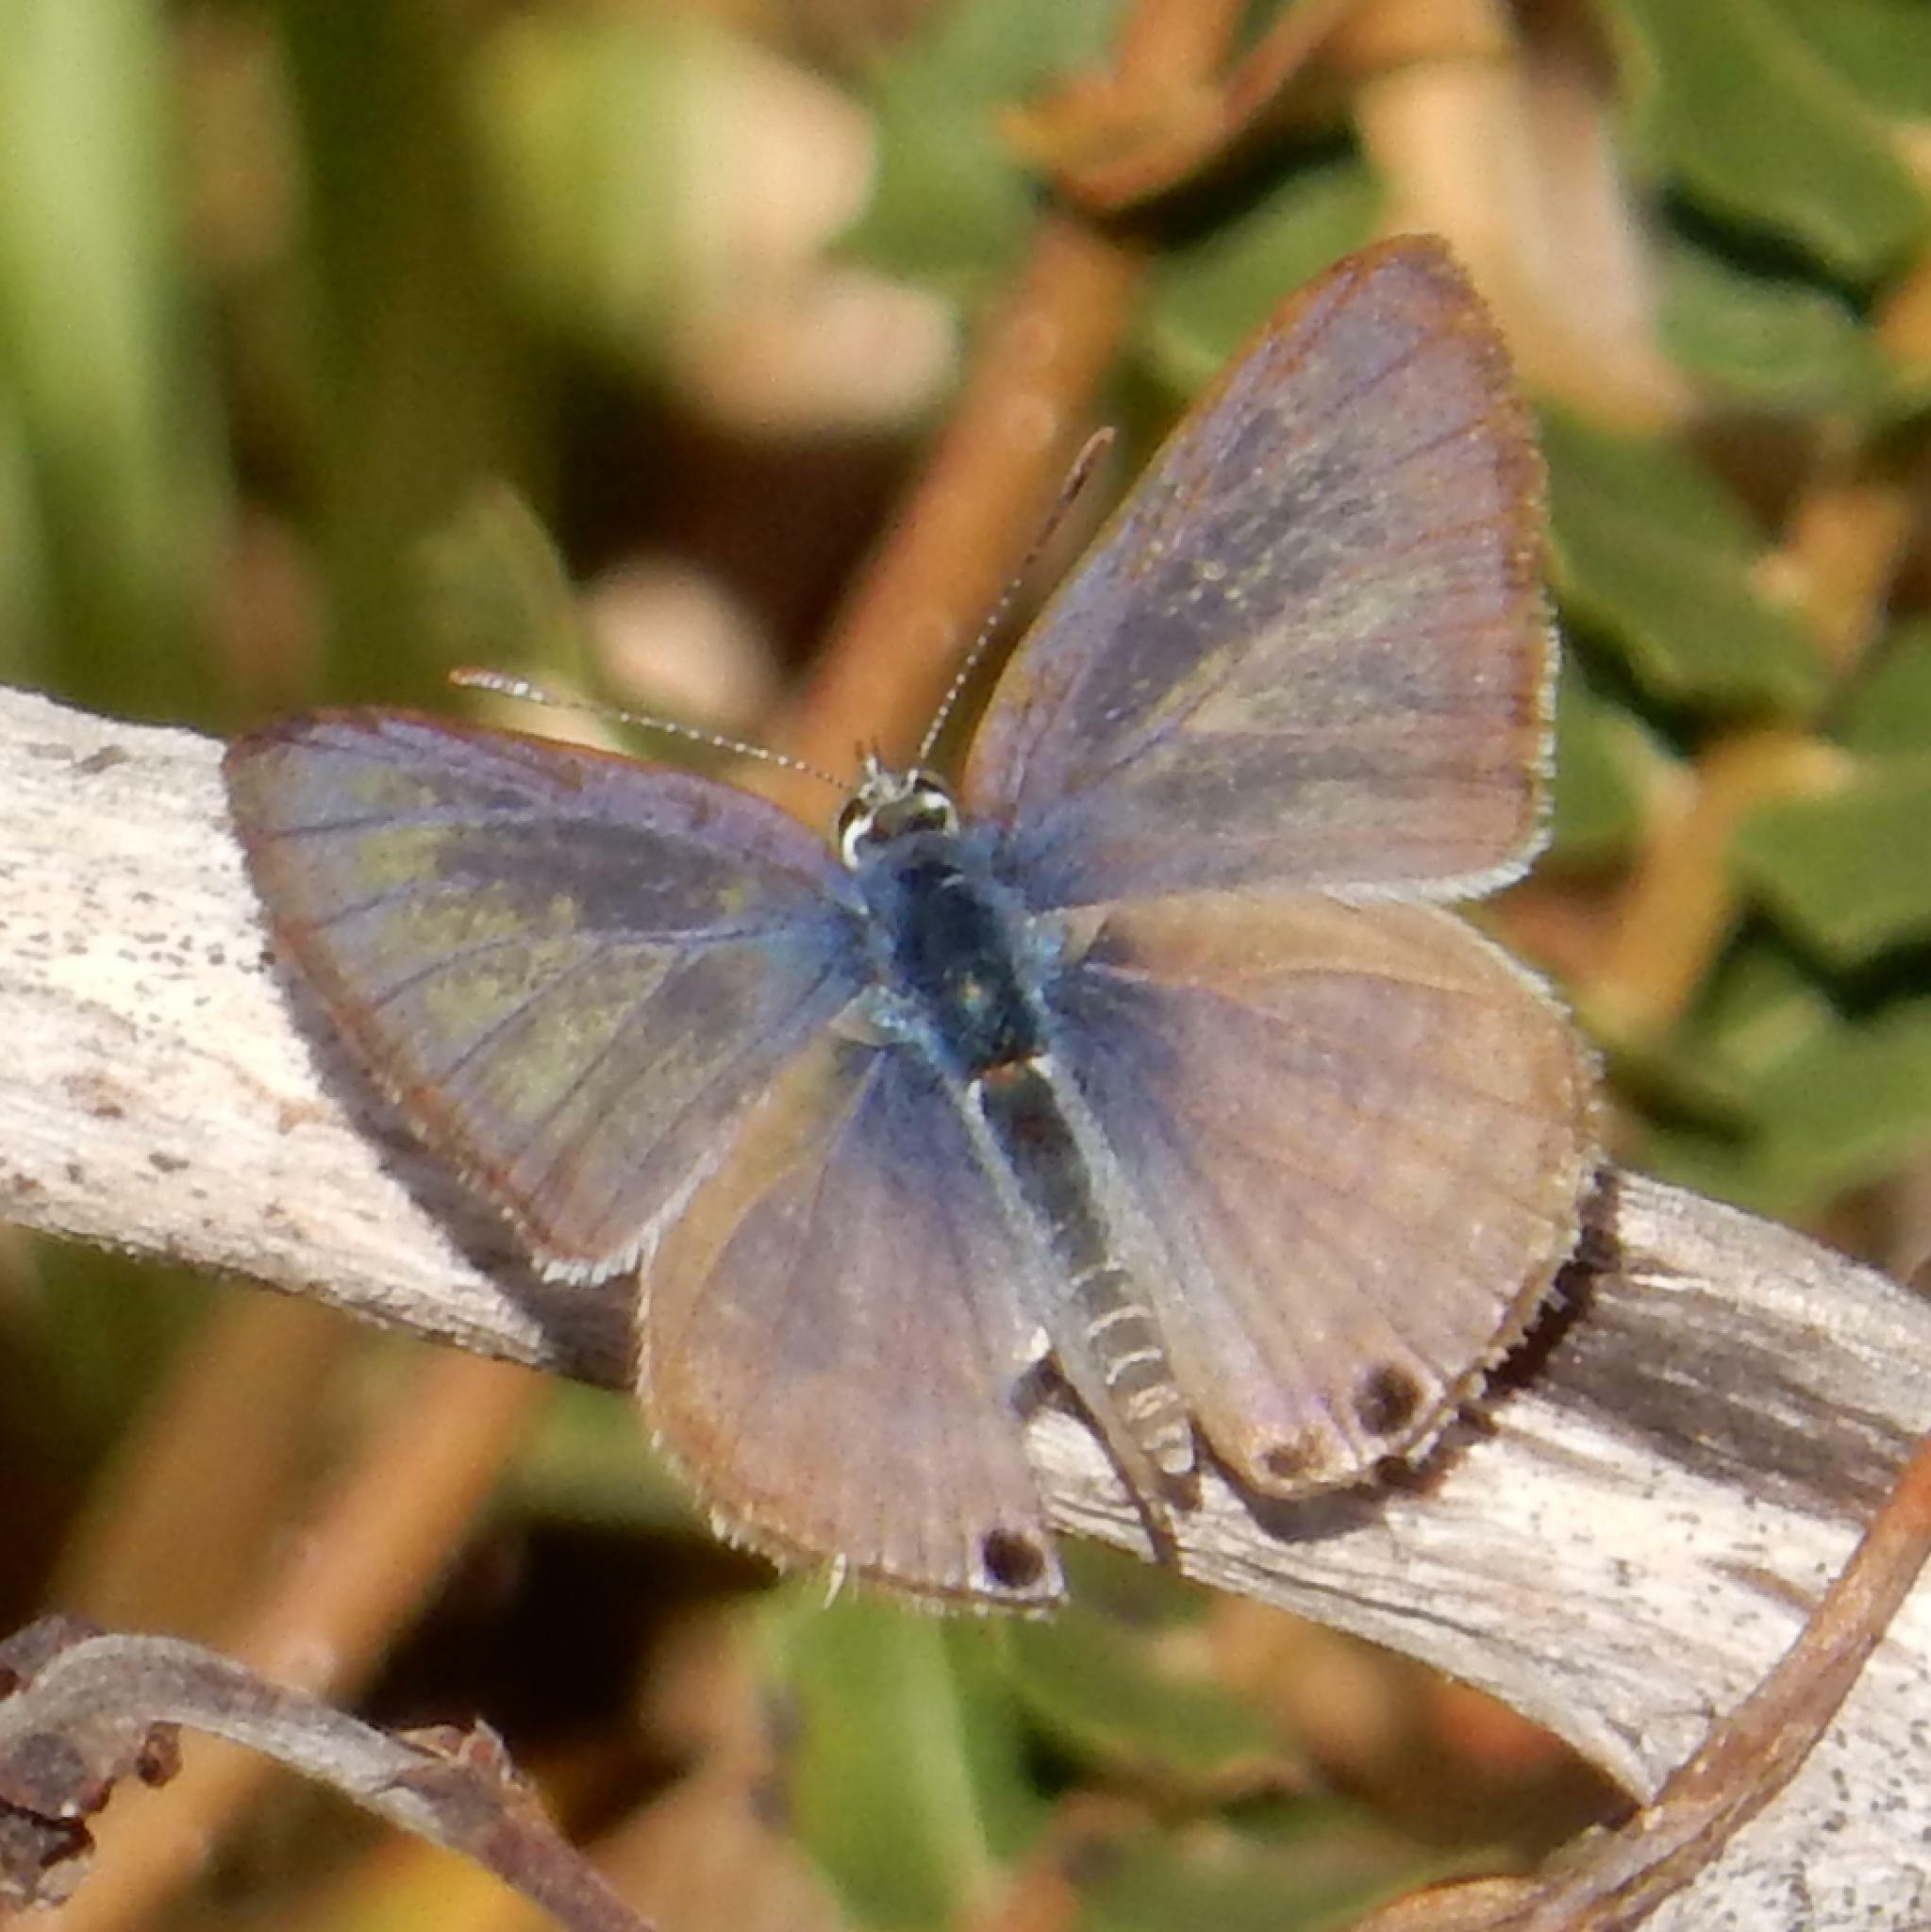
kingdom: Animalia
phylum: Arthropoda
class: Insecta
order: Lepidoptera
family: Lycaenidae
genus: Lampides
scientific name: Lampides boeticus
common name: Long-tailed blue
